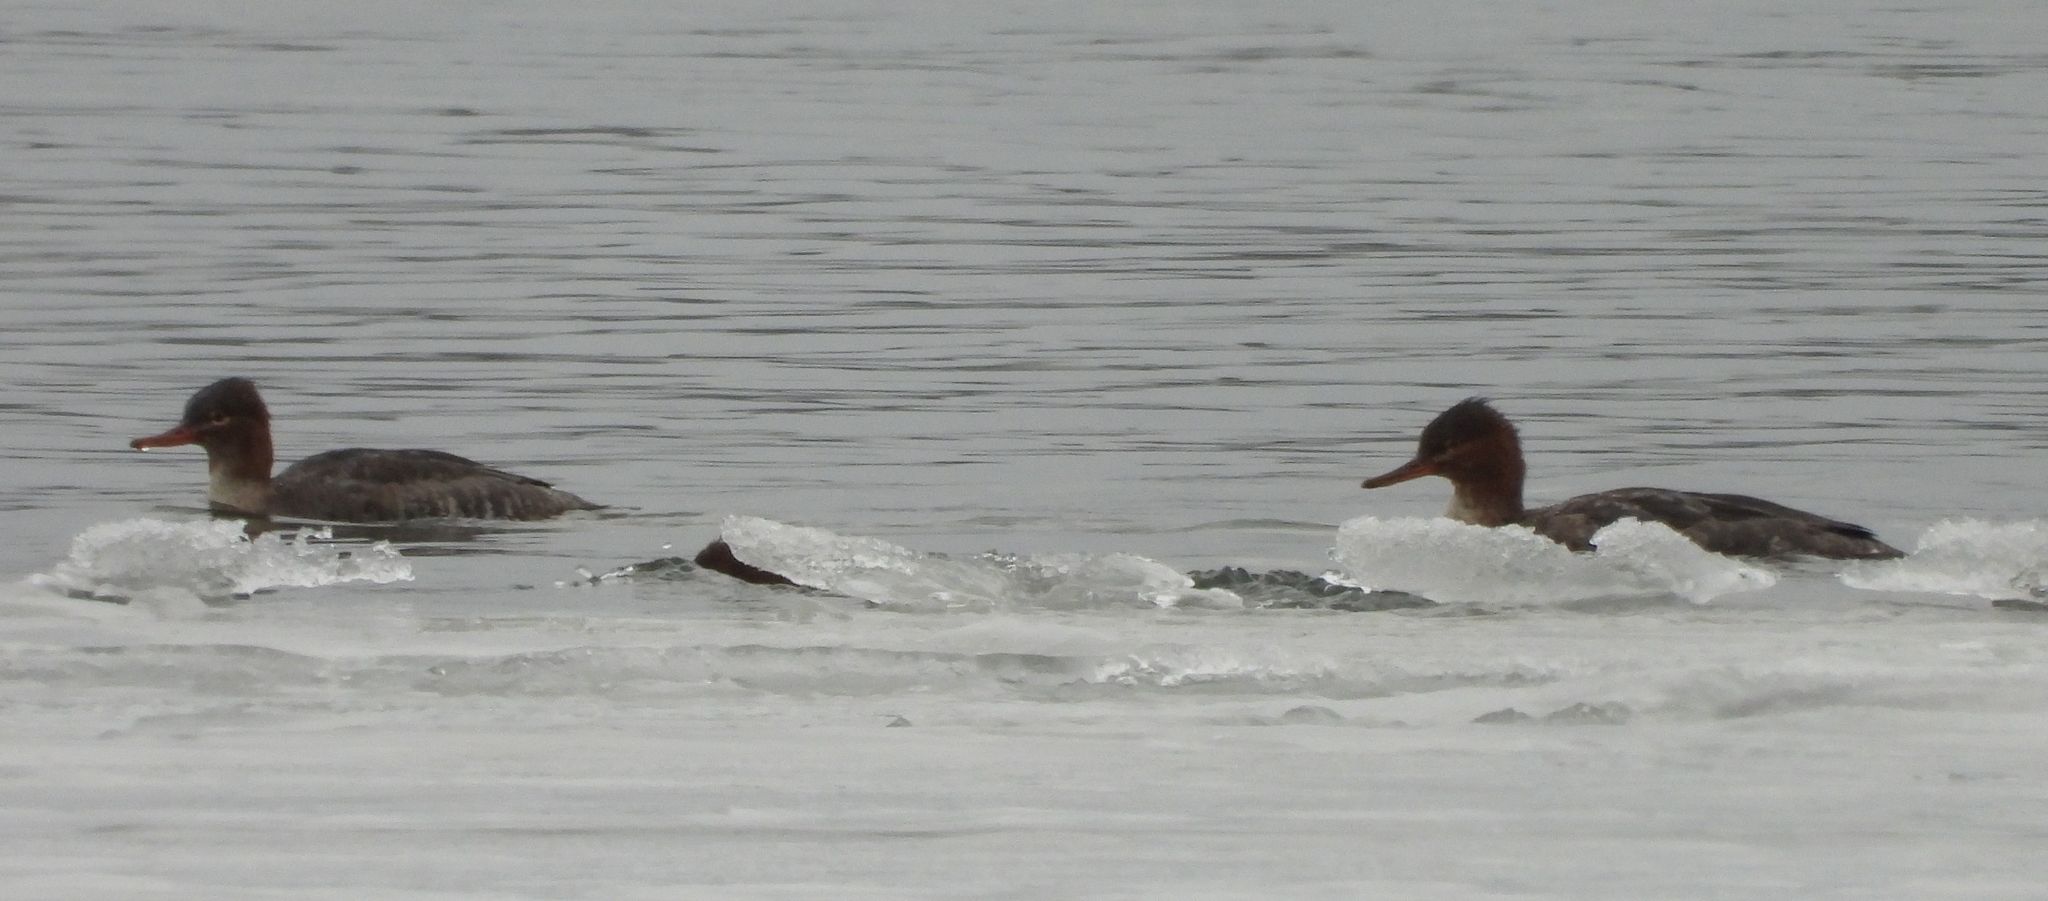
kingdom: Animalia
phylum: Chordata
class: Aves
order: Anseriformes
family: Anatidae
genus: Mergus
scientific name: Mergus serrator
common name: Red-breasted merganser
